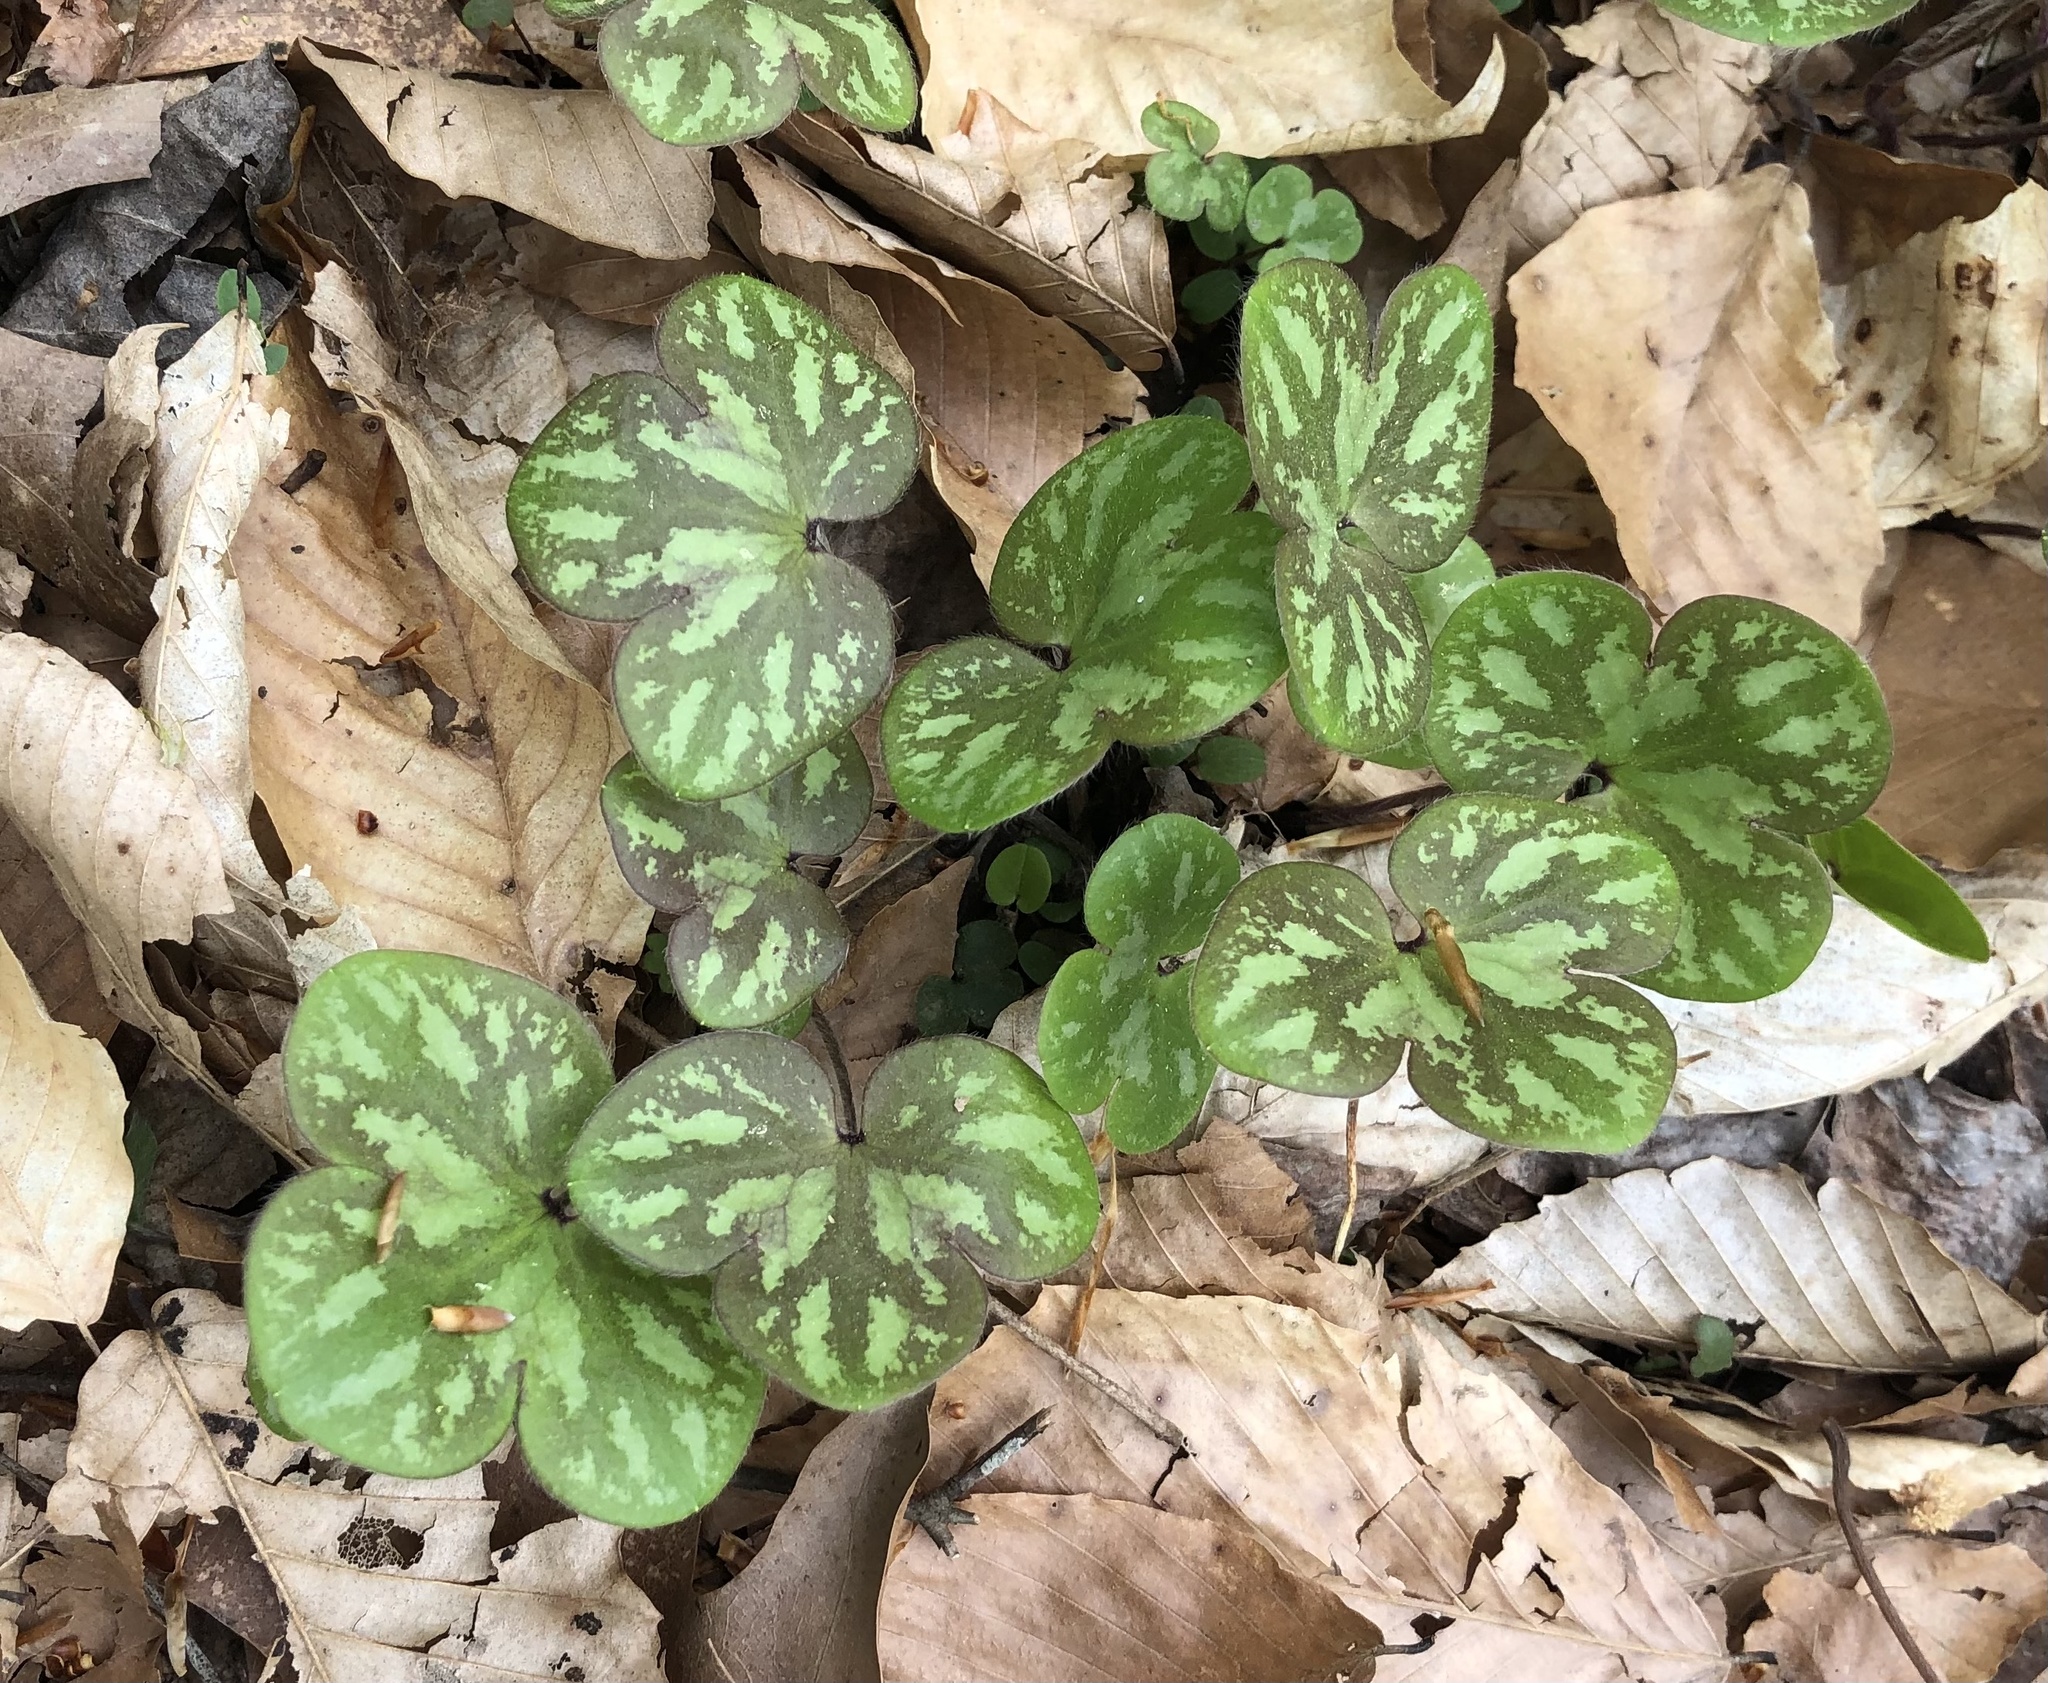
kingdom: Plantae
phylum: Tracheophyta
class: Magnoliopsida
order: Ranunculales
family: Ranunculaceae
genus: Hepatica
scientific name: Hepatica americana
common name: American hepatica
